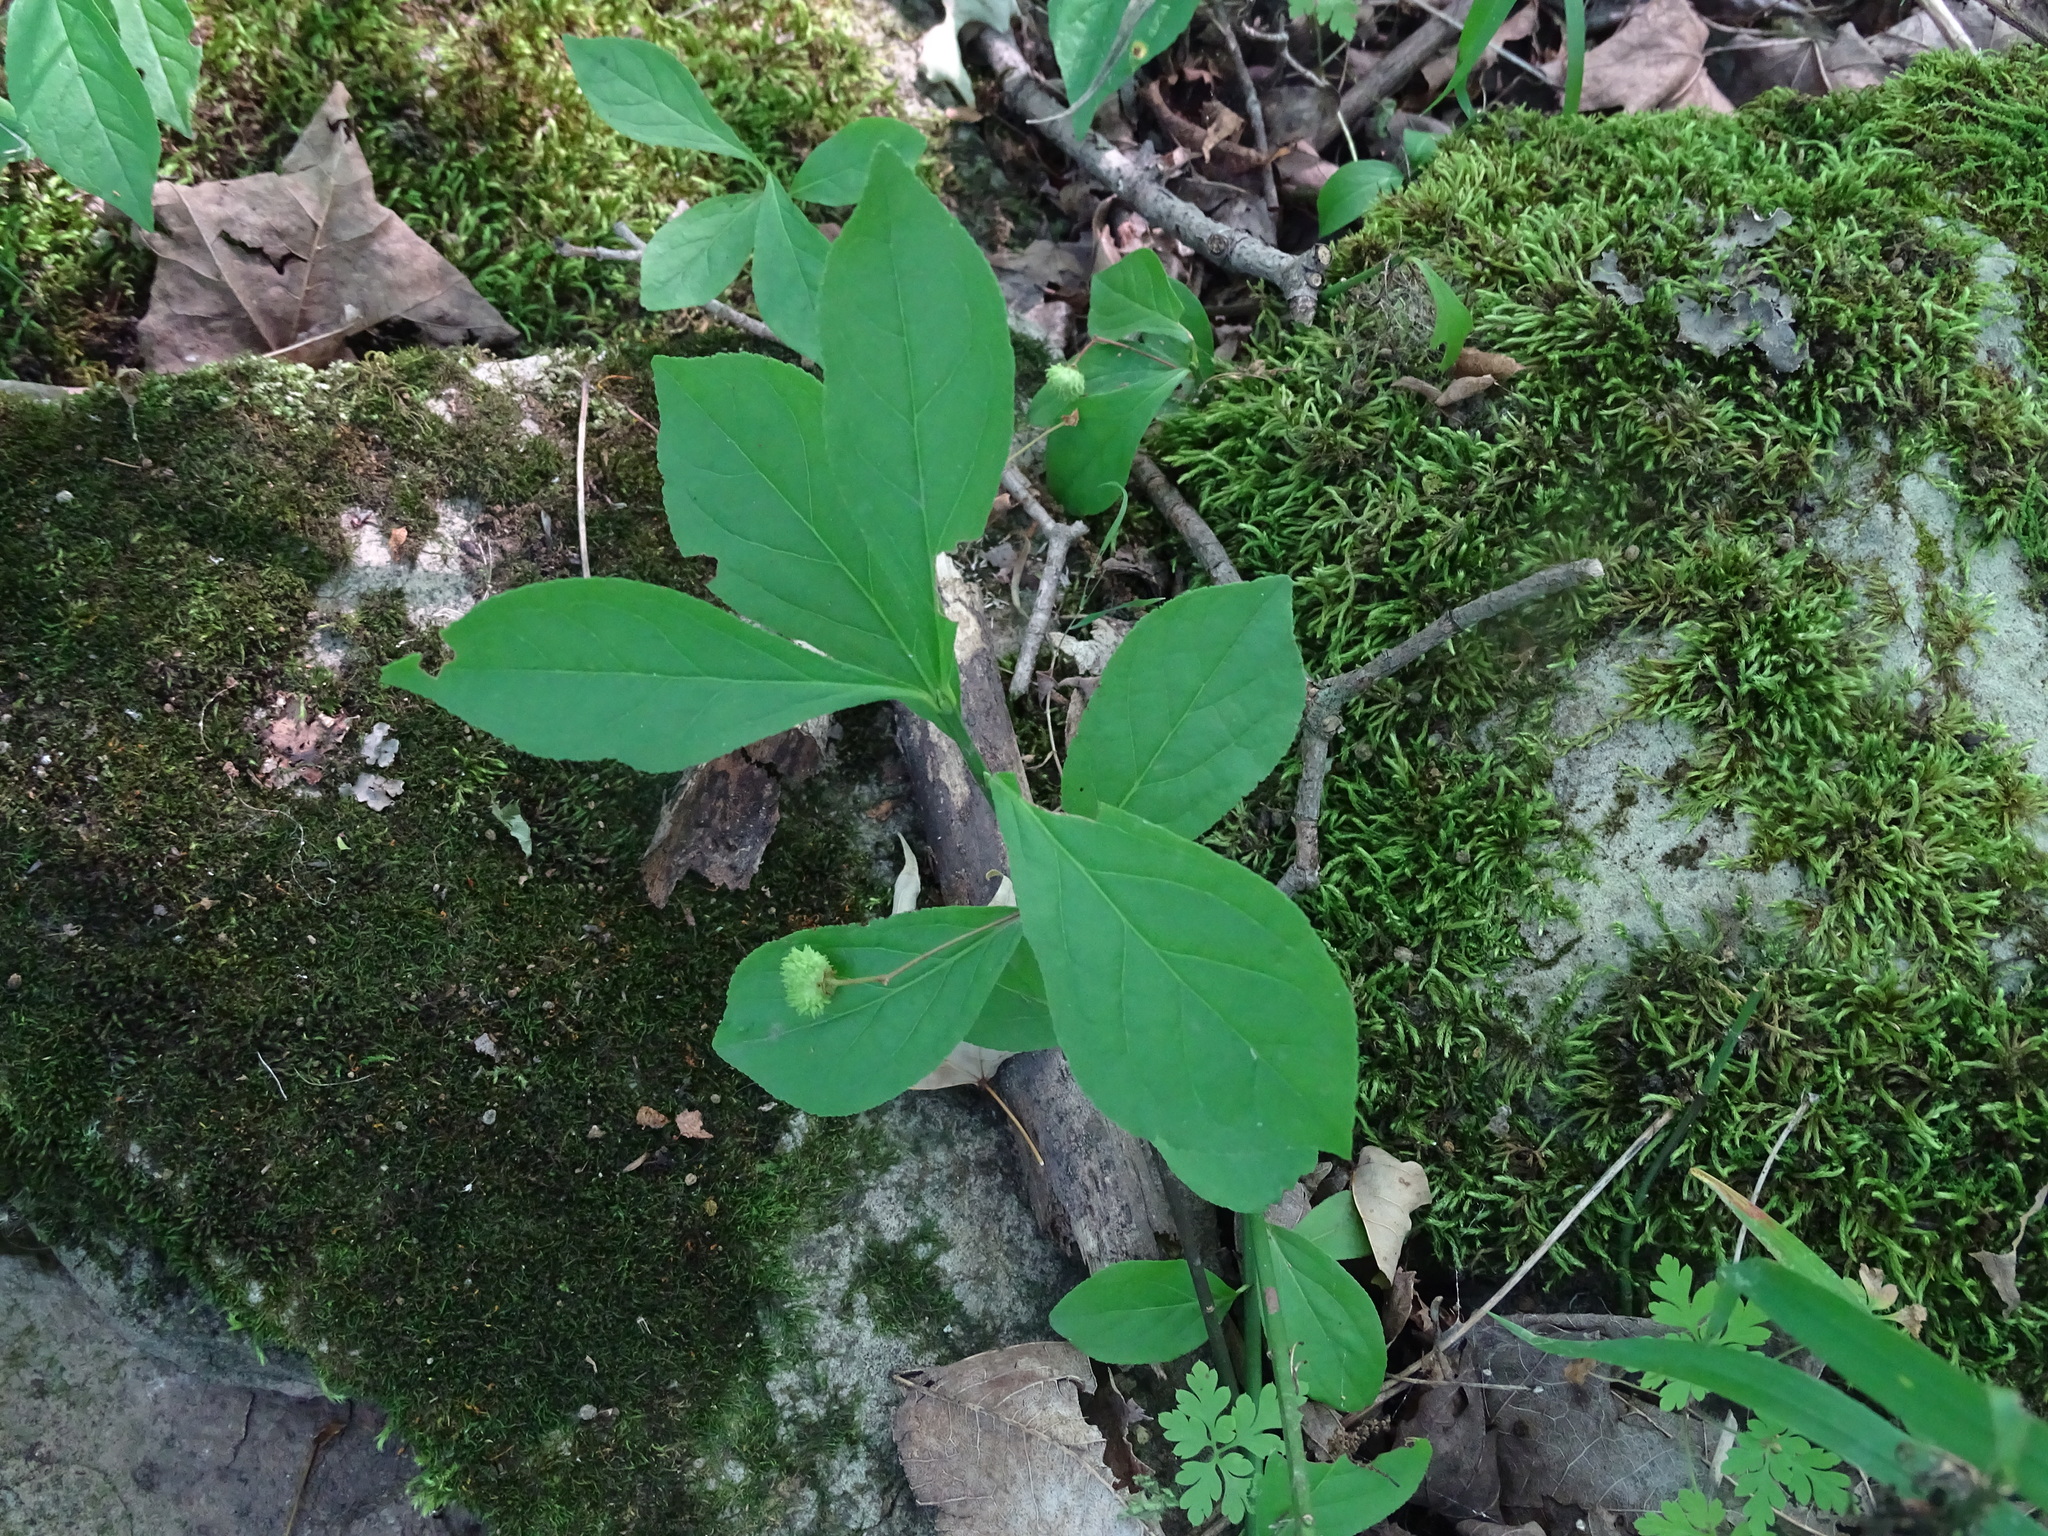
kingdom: Plantae
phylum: Tracheophyta
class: Magnoliopsida
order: Celastrales
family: Celastraceae
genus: Euonymus
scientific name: Euonymus obovatus
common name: Running strawberry-bush
